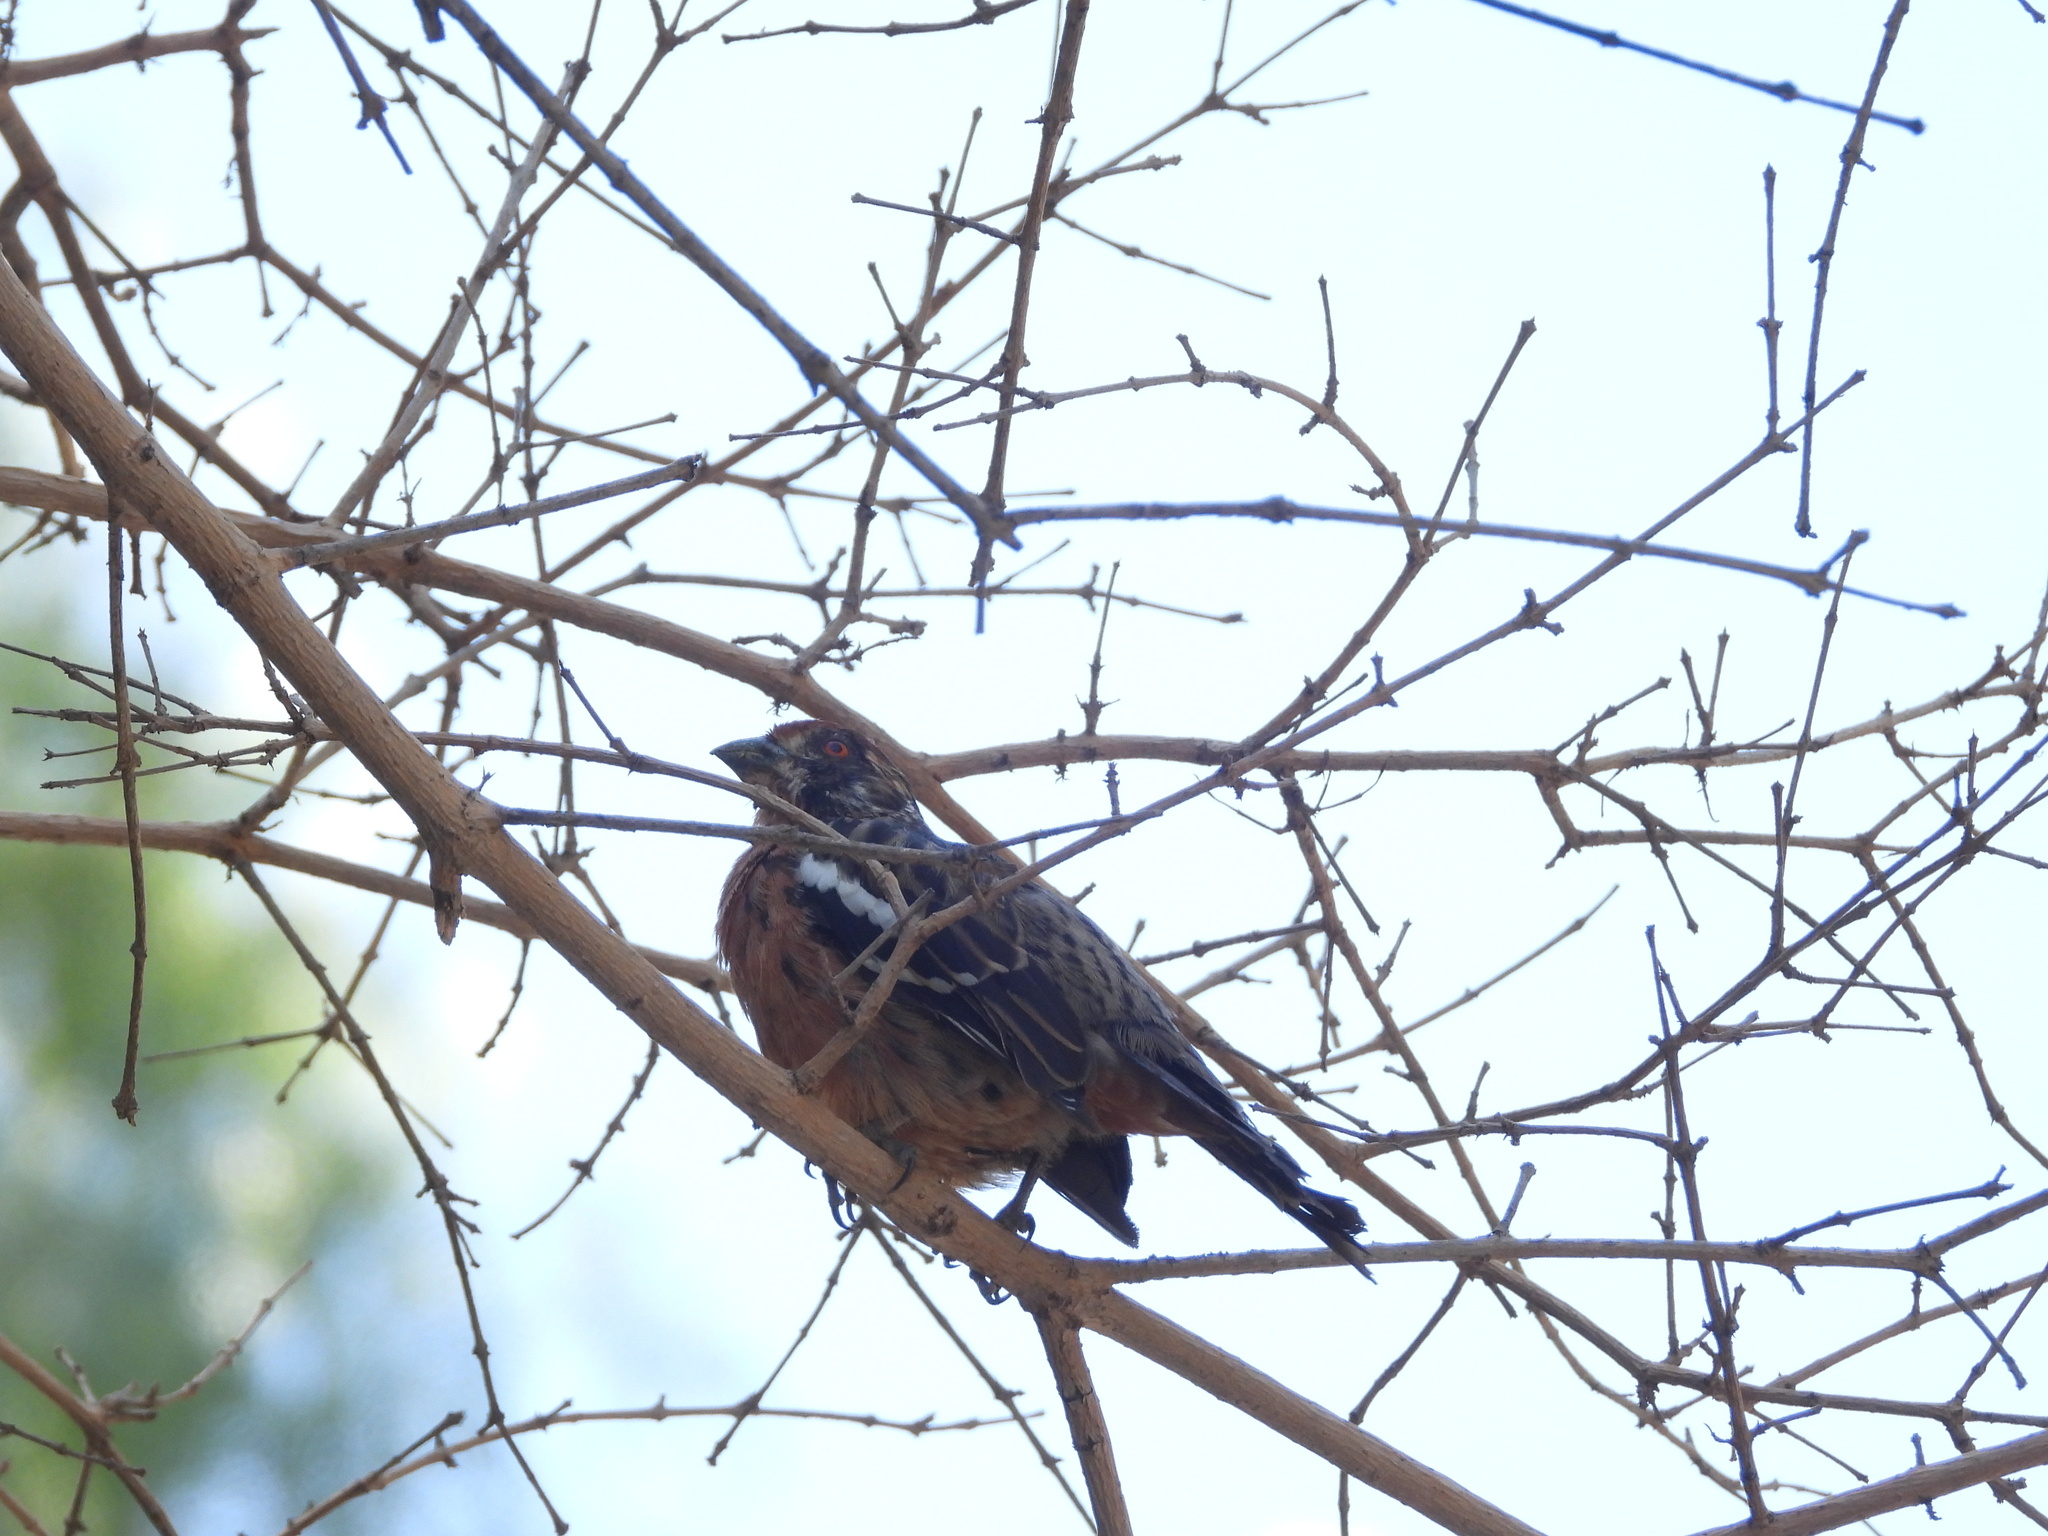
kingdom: Animalia
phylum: Chordata
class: Aves
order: Passeriformes
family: Cotingidae
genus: Phytotoma
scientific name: Phytotoma rara
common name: Rufous-tailed plantcutter
